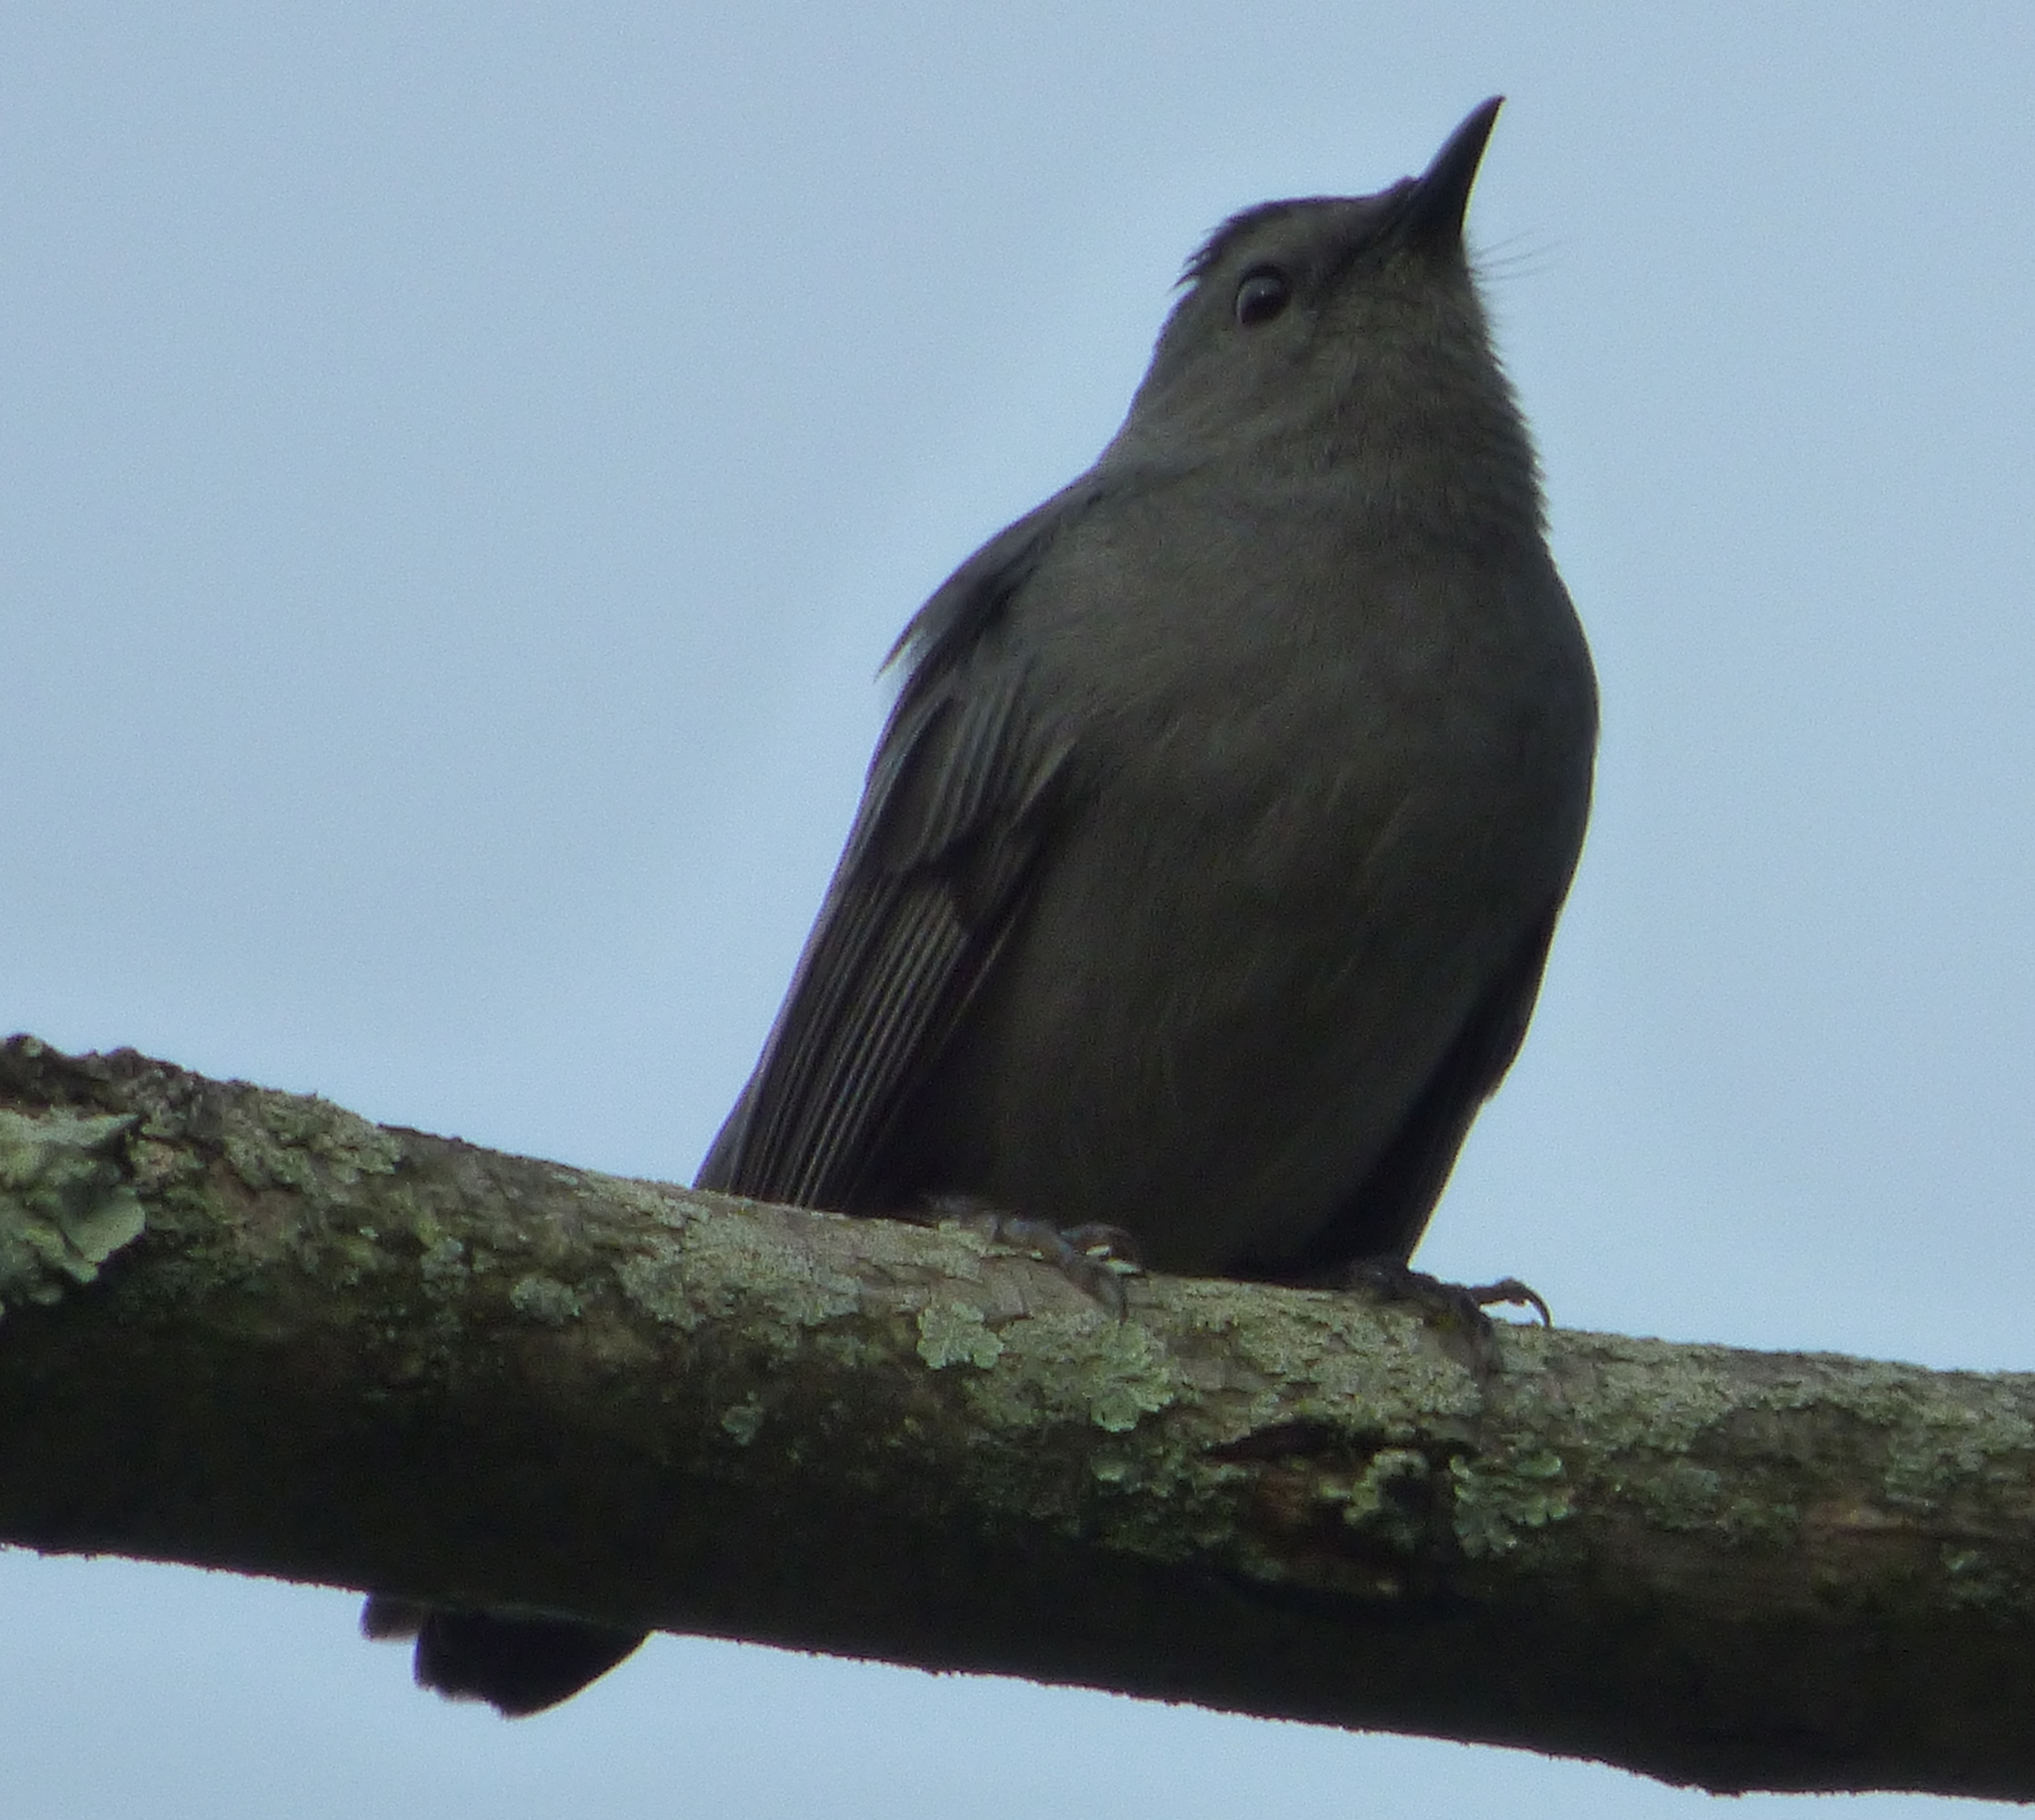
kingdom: Animalia
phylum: Chordata
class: Aves
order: Passeriformes
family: Mimidae
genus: Dumetella
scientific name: Dumetella carolinensis
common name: Gray catbird
